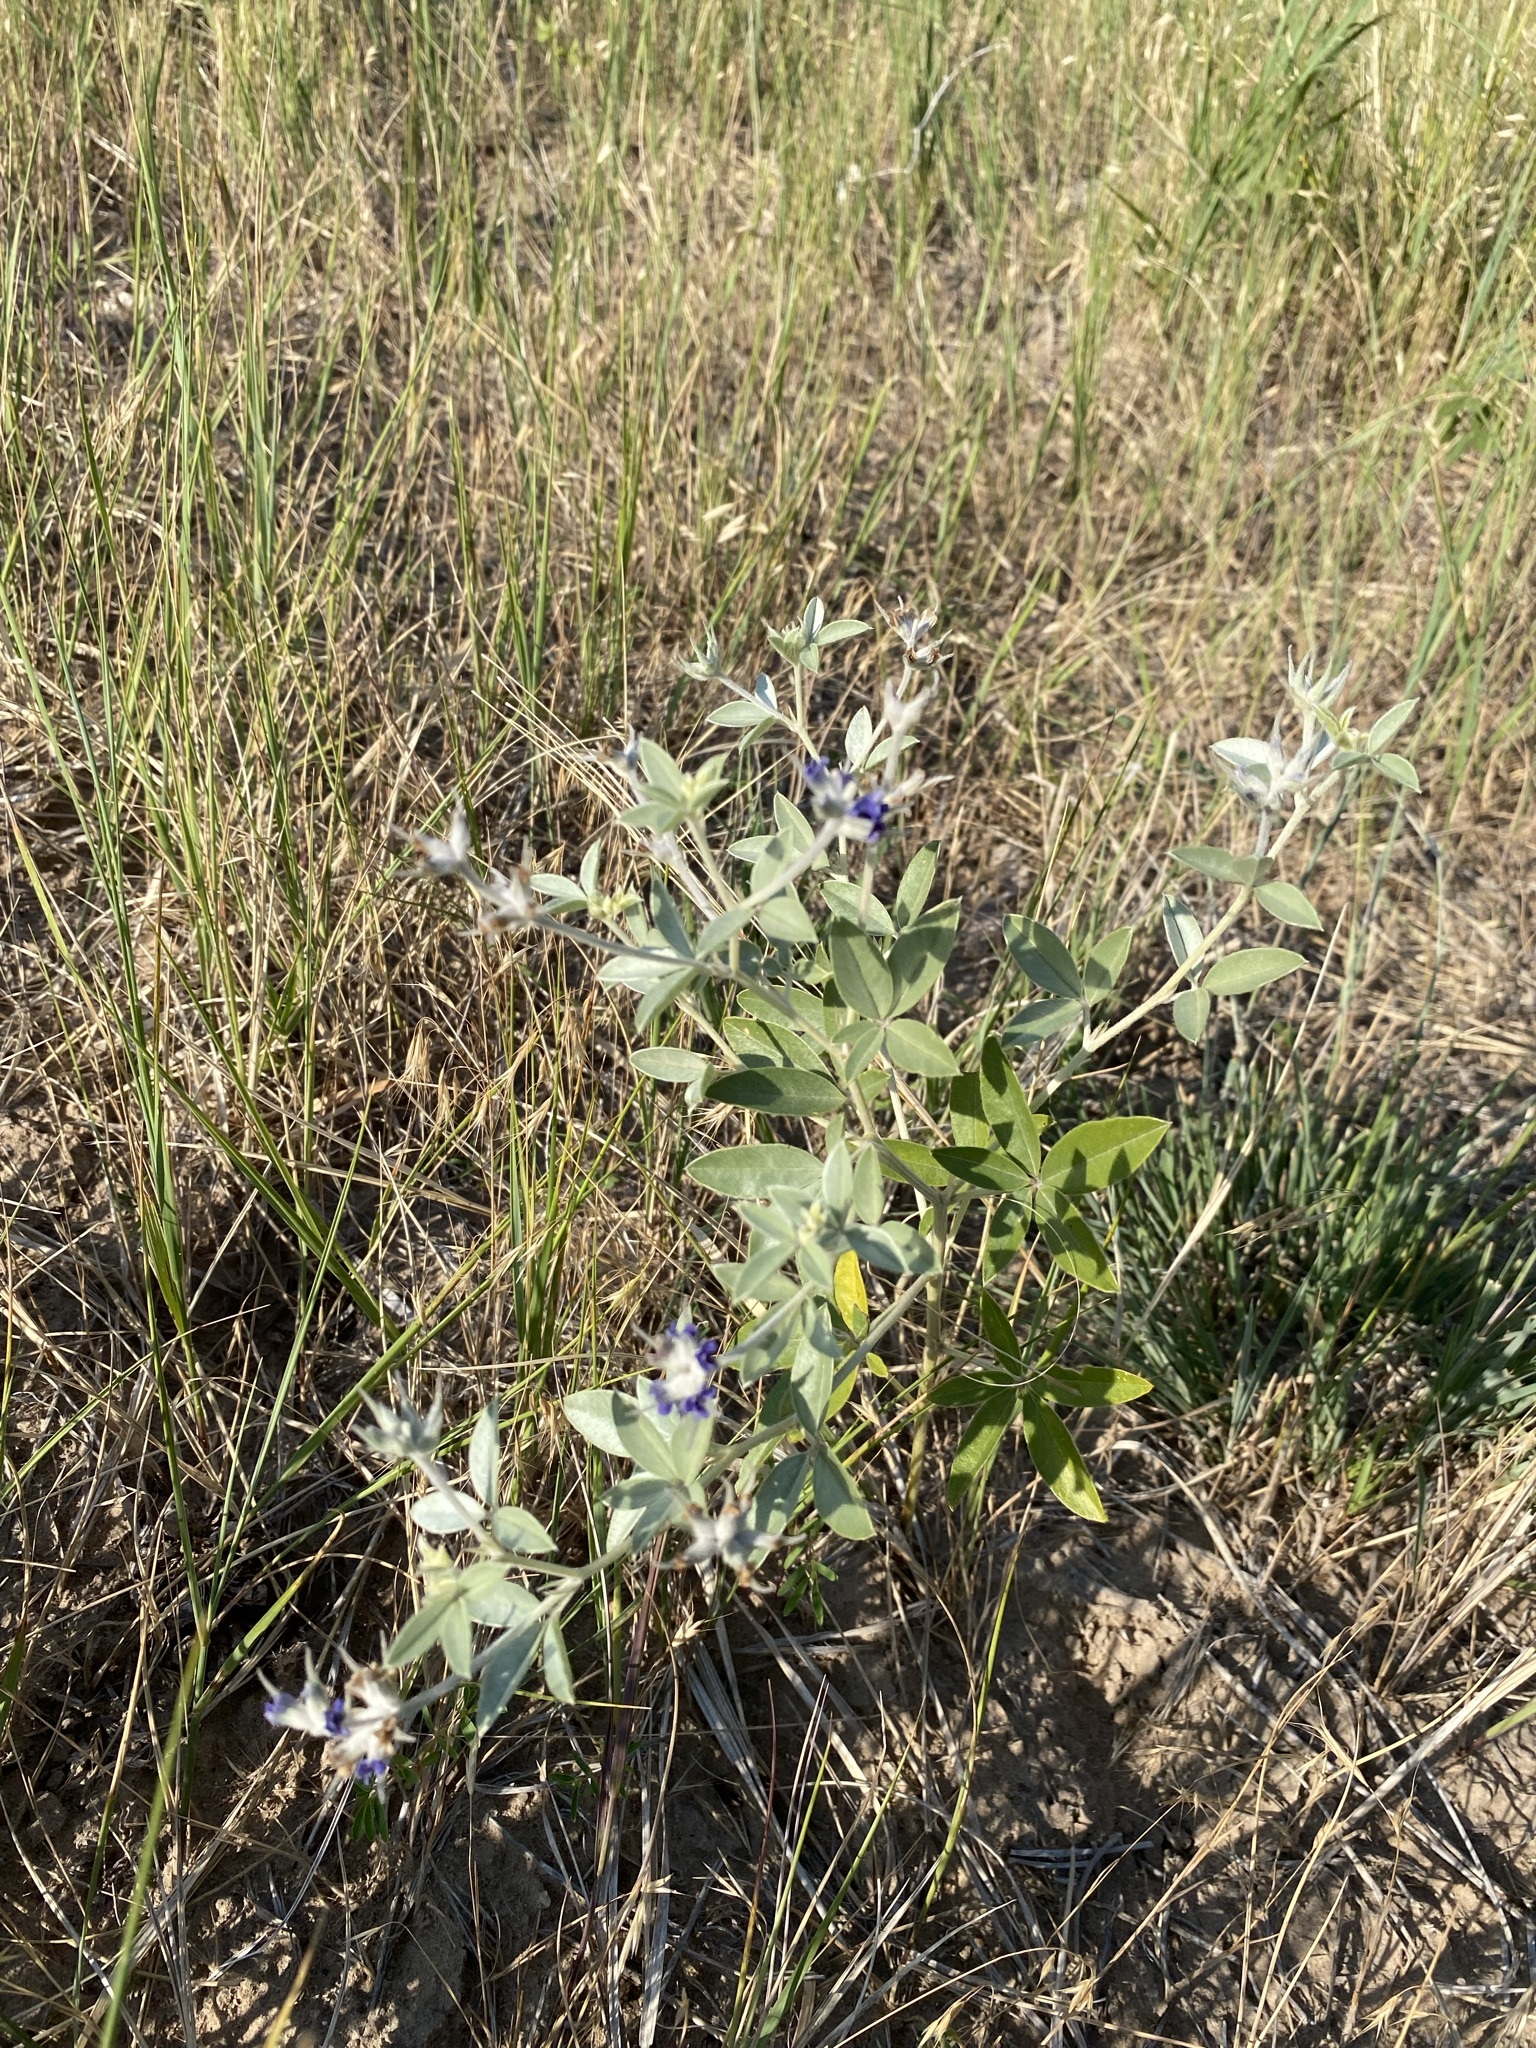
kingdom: Plantae
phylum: Tracheophyta
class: Magnoliopsida
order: Fabales
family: Fabaceae
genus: Pediomelum
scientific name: Pediomelum argophyllum
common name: Silver-leaved indian breadroot
